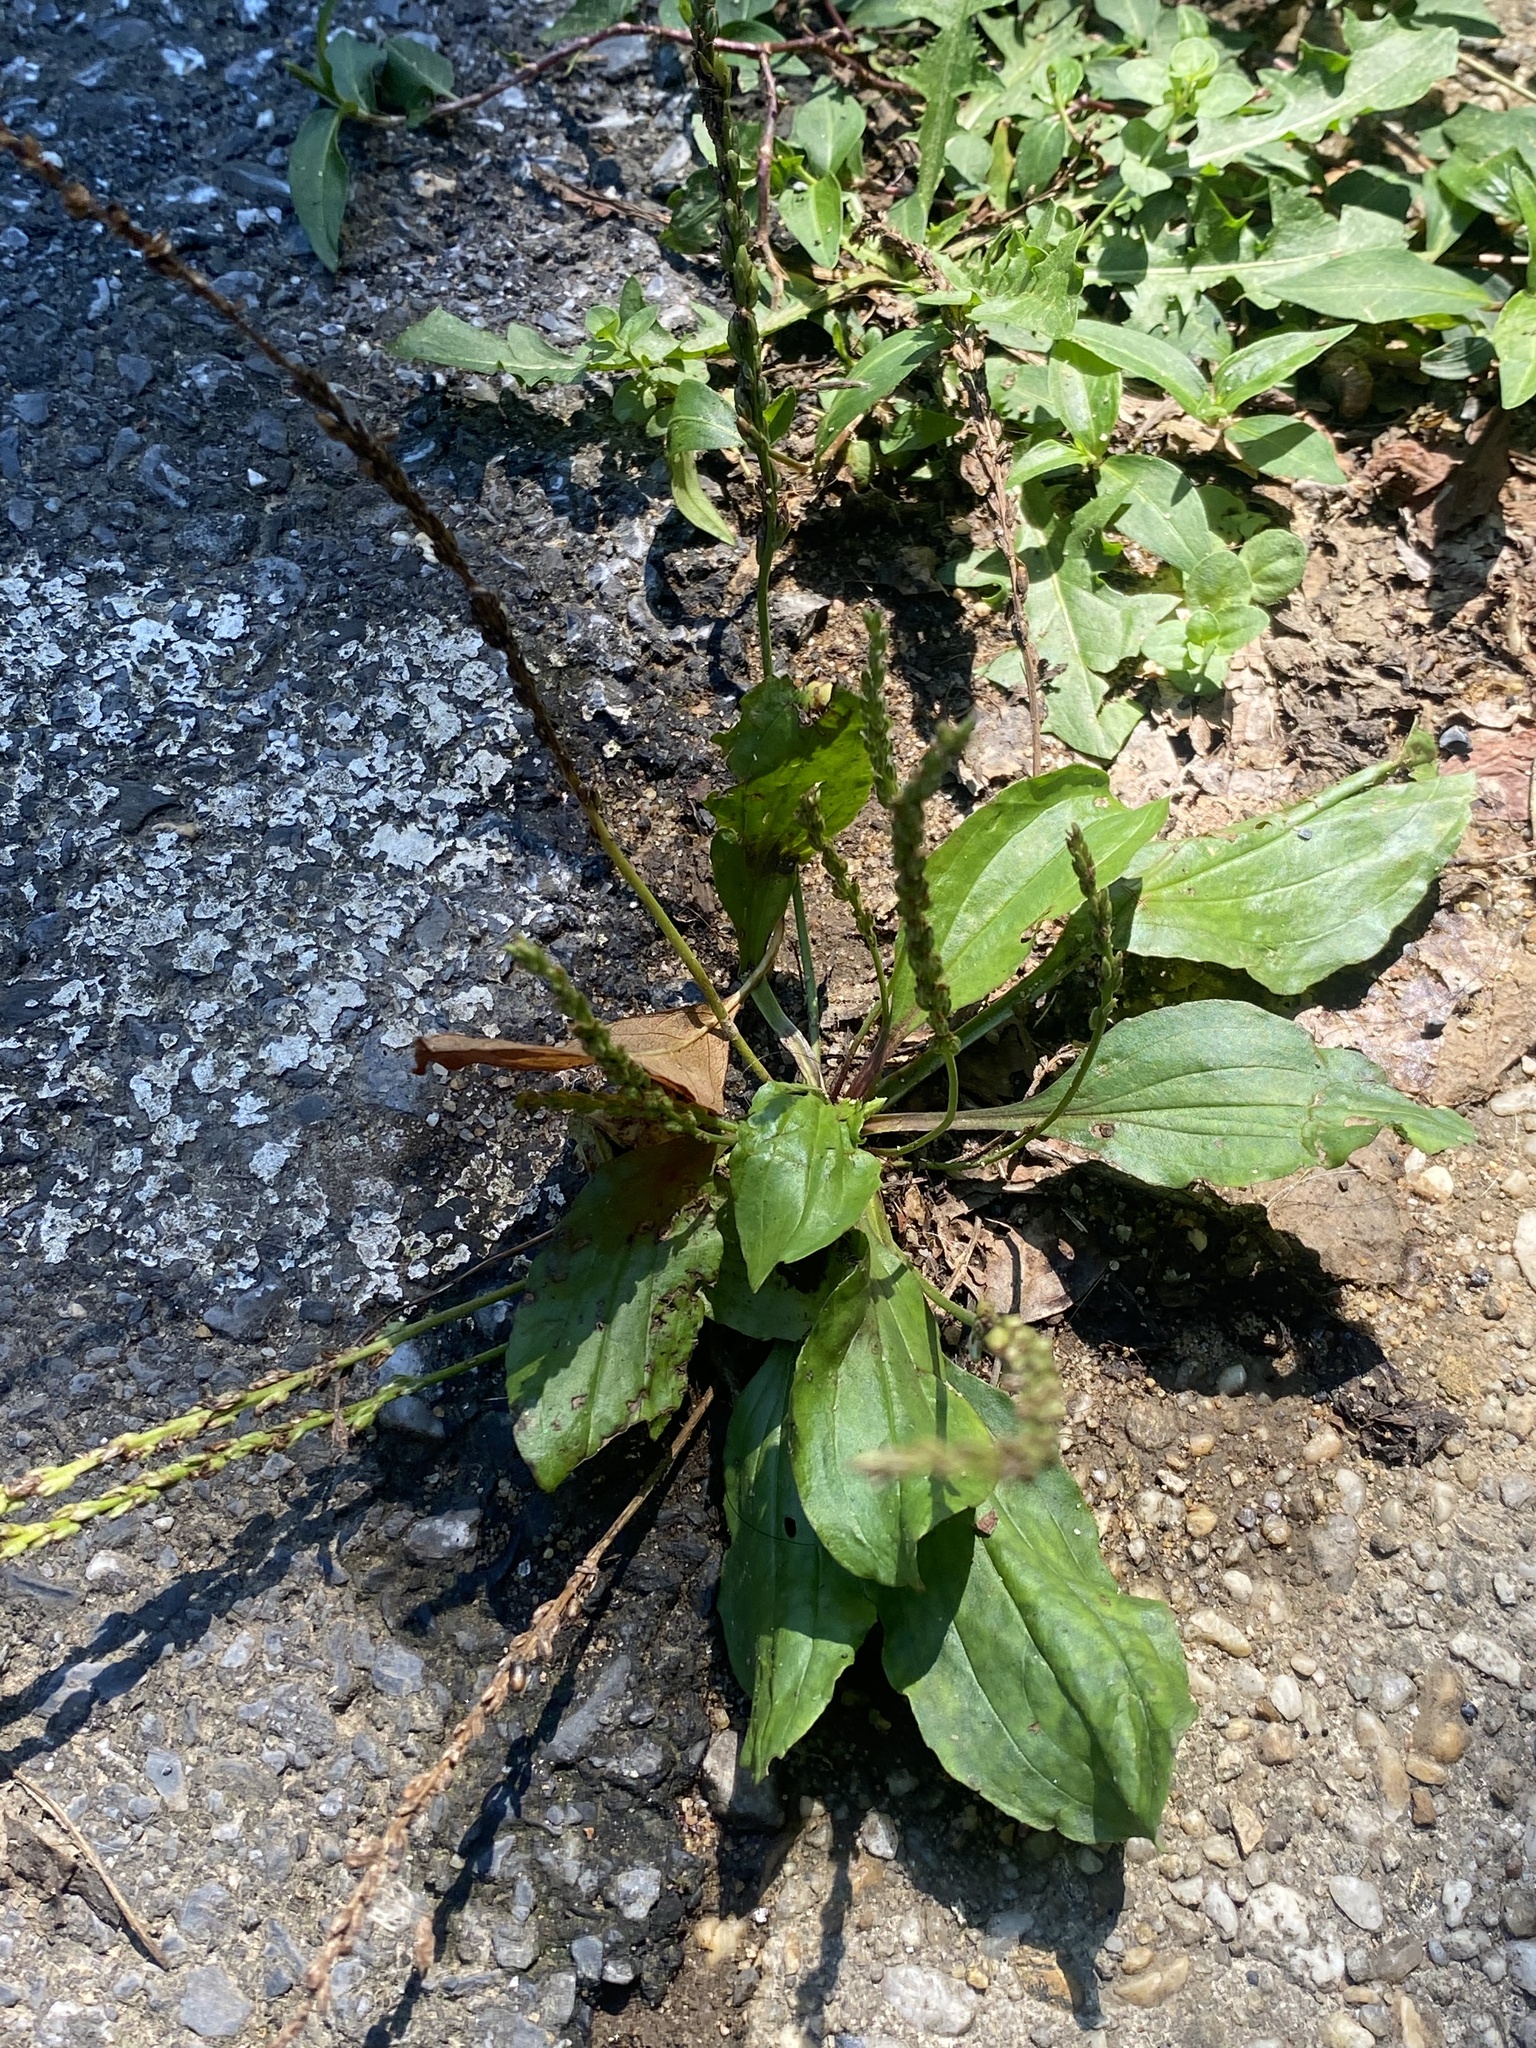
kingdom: Plantae
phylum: Tracheophyta
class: Magnoliopsida
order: Lamiales
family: Plantaginaceae
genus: Plantago
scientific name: Plantago rugelii
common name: American plantain
